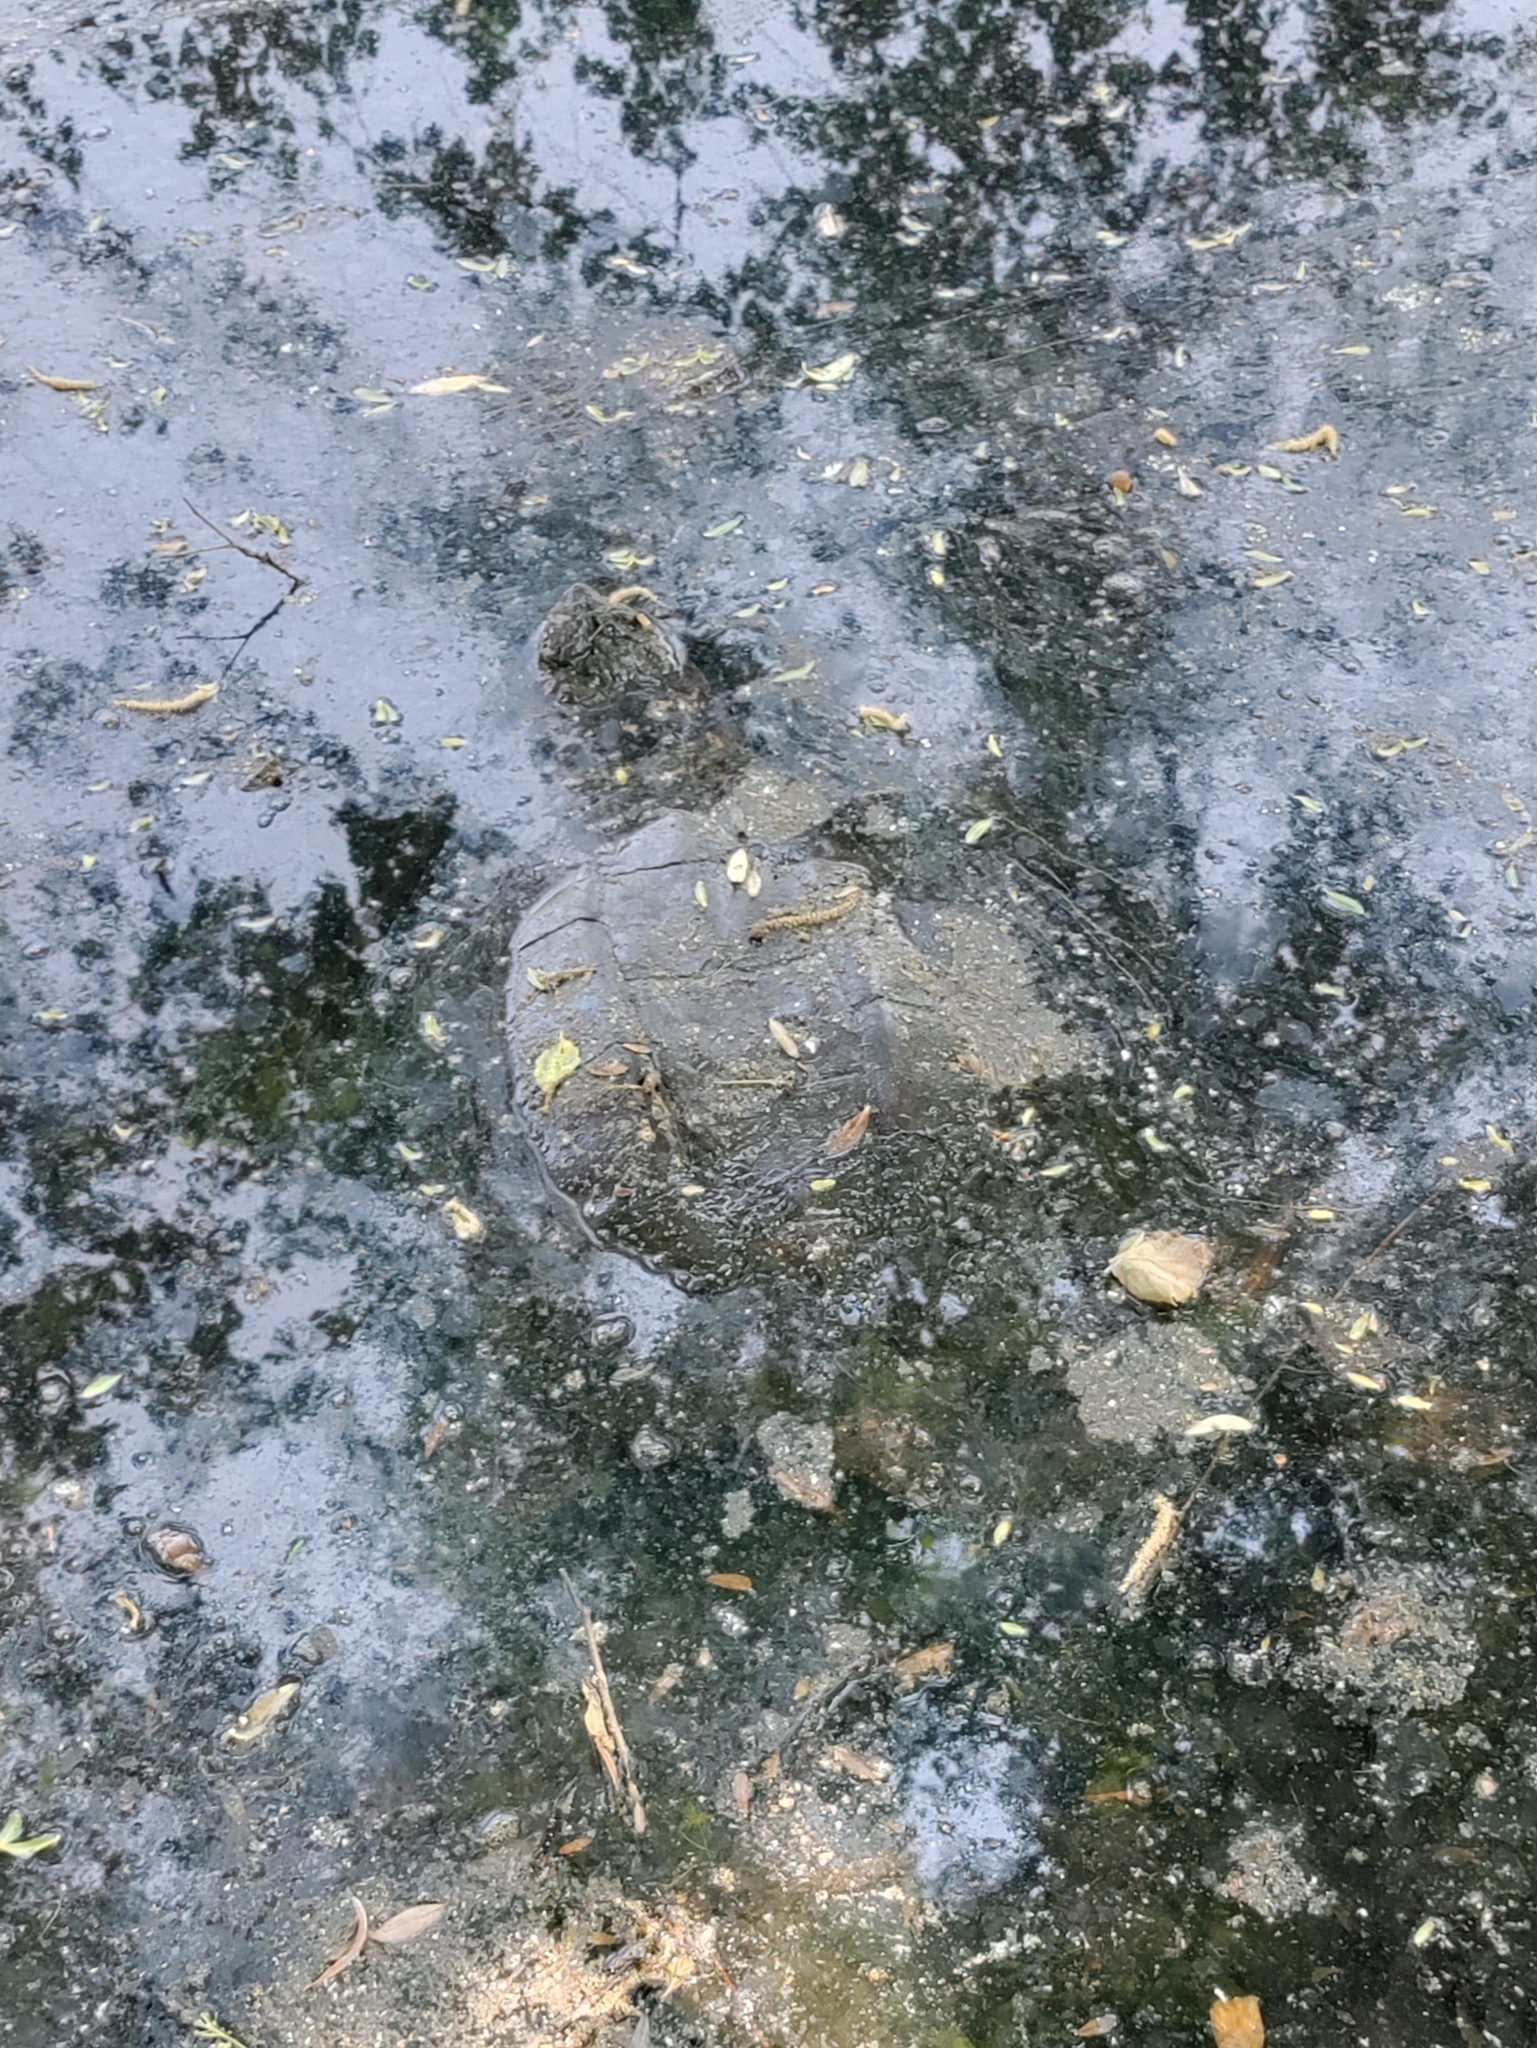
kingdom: Animalia
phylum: Chordata
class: Testudines
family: Chelydridae
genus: Chelydra
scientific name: Chelydra serpentina
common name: Common snapping turtle
